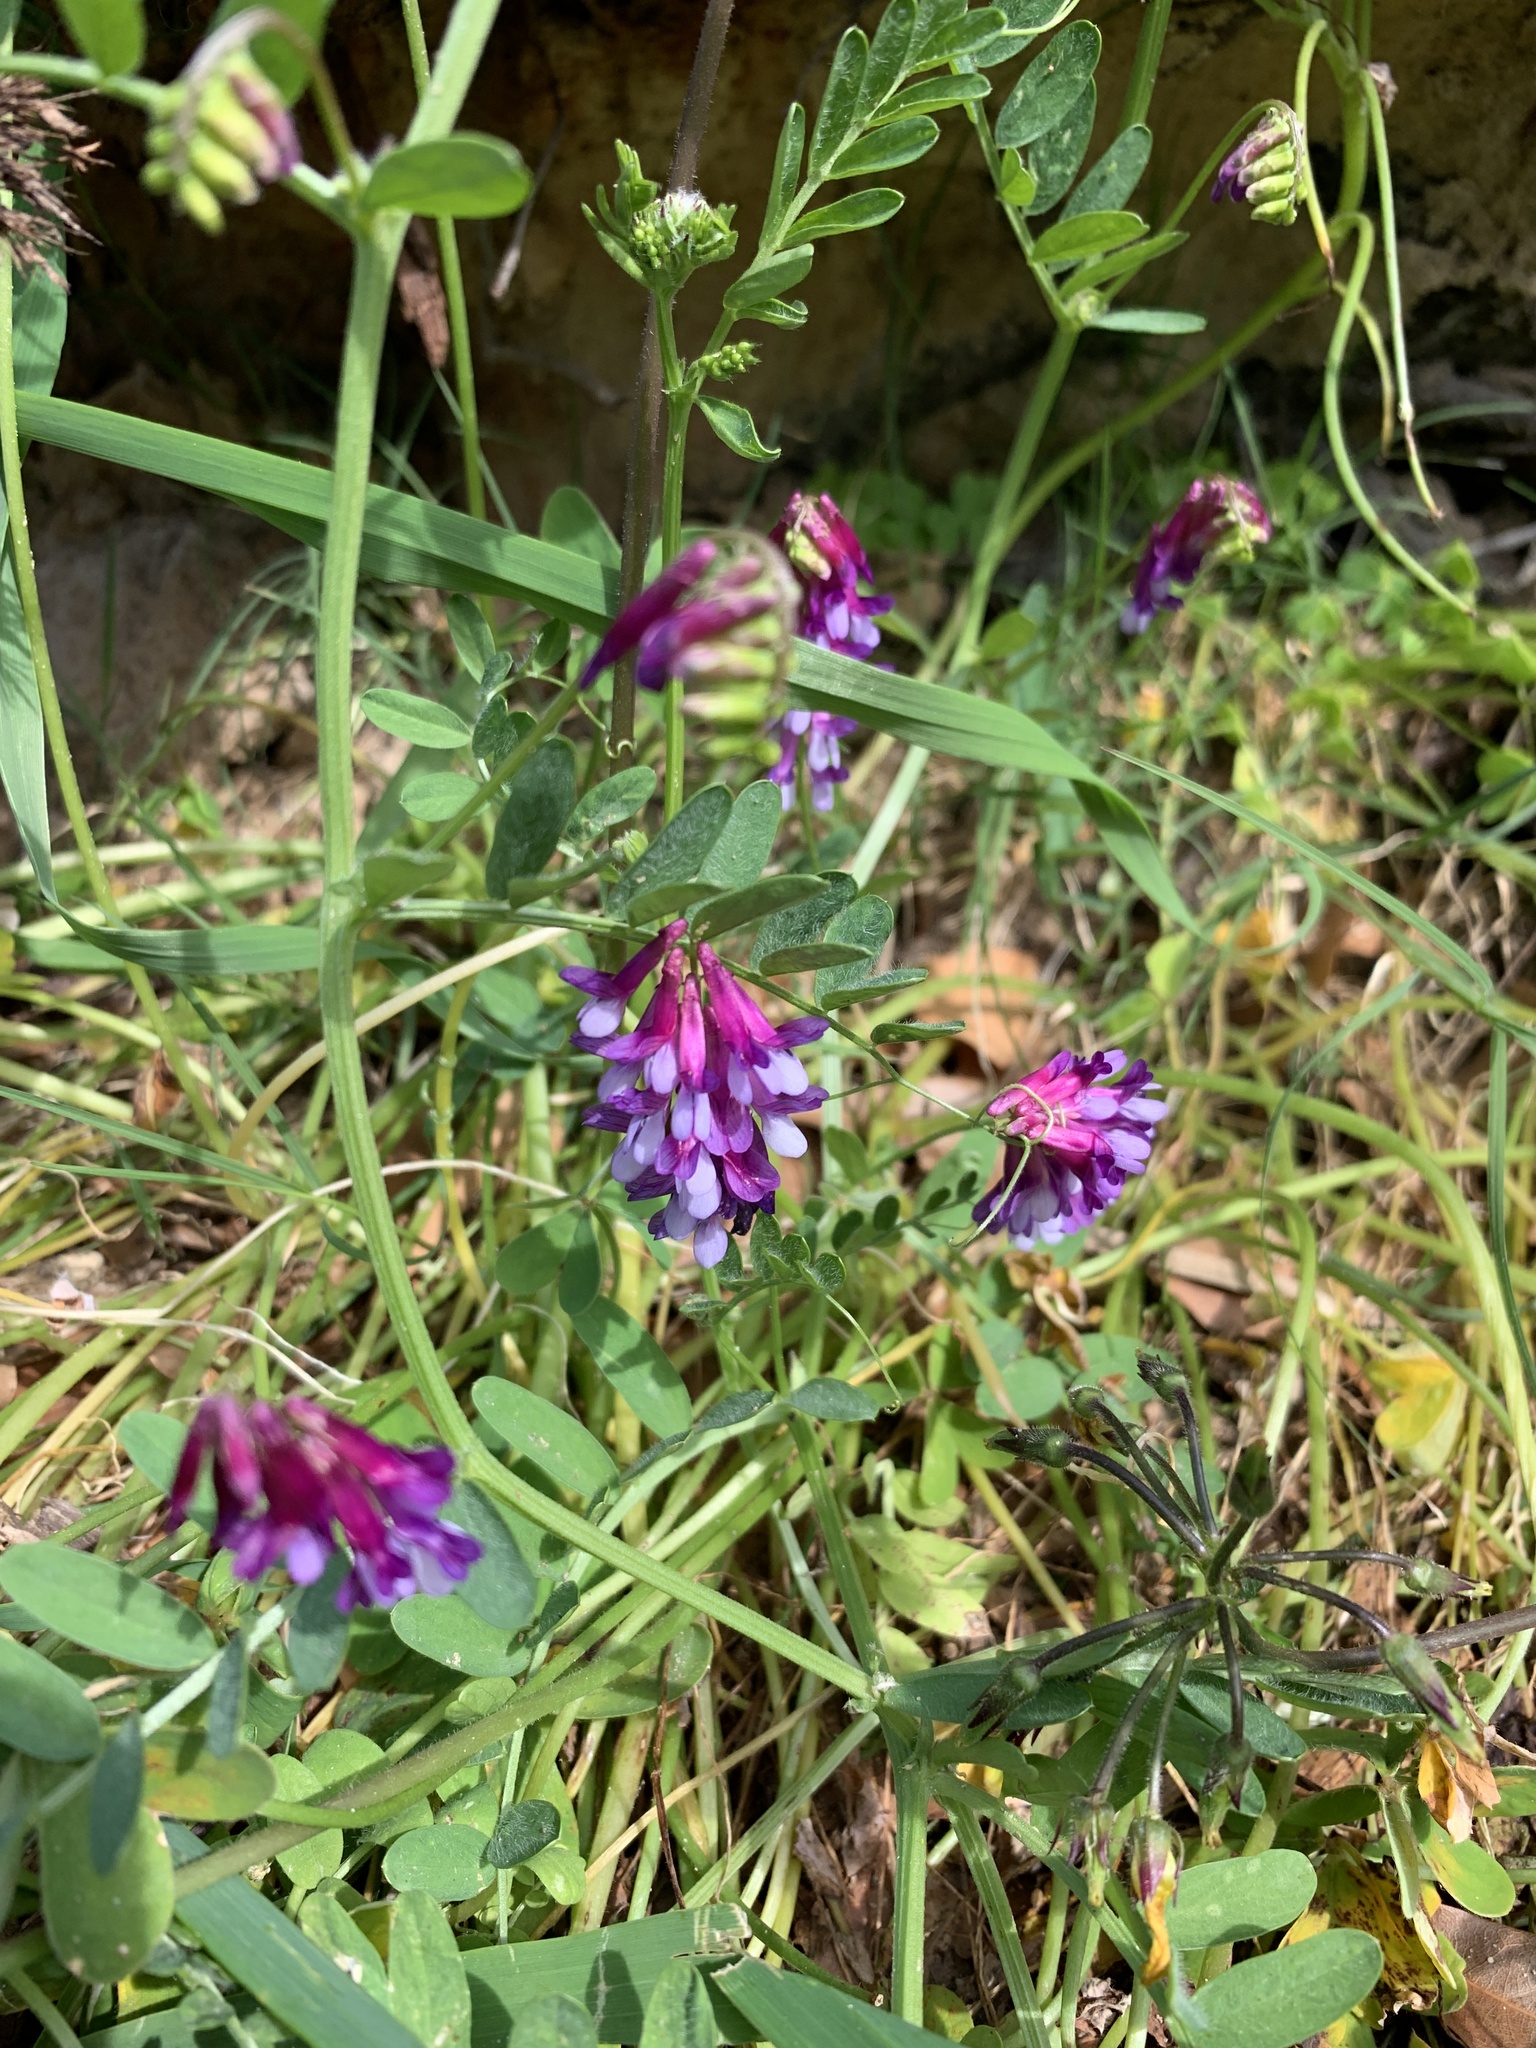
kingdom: Plantae
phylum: Tracheophyta
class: Magnoliopsida
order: Fabales
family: Fabaceae
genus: Vicia
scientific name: Vicia benghalensis
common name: Purple vetch
